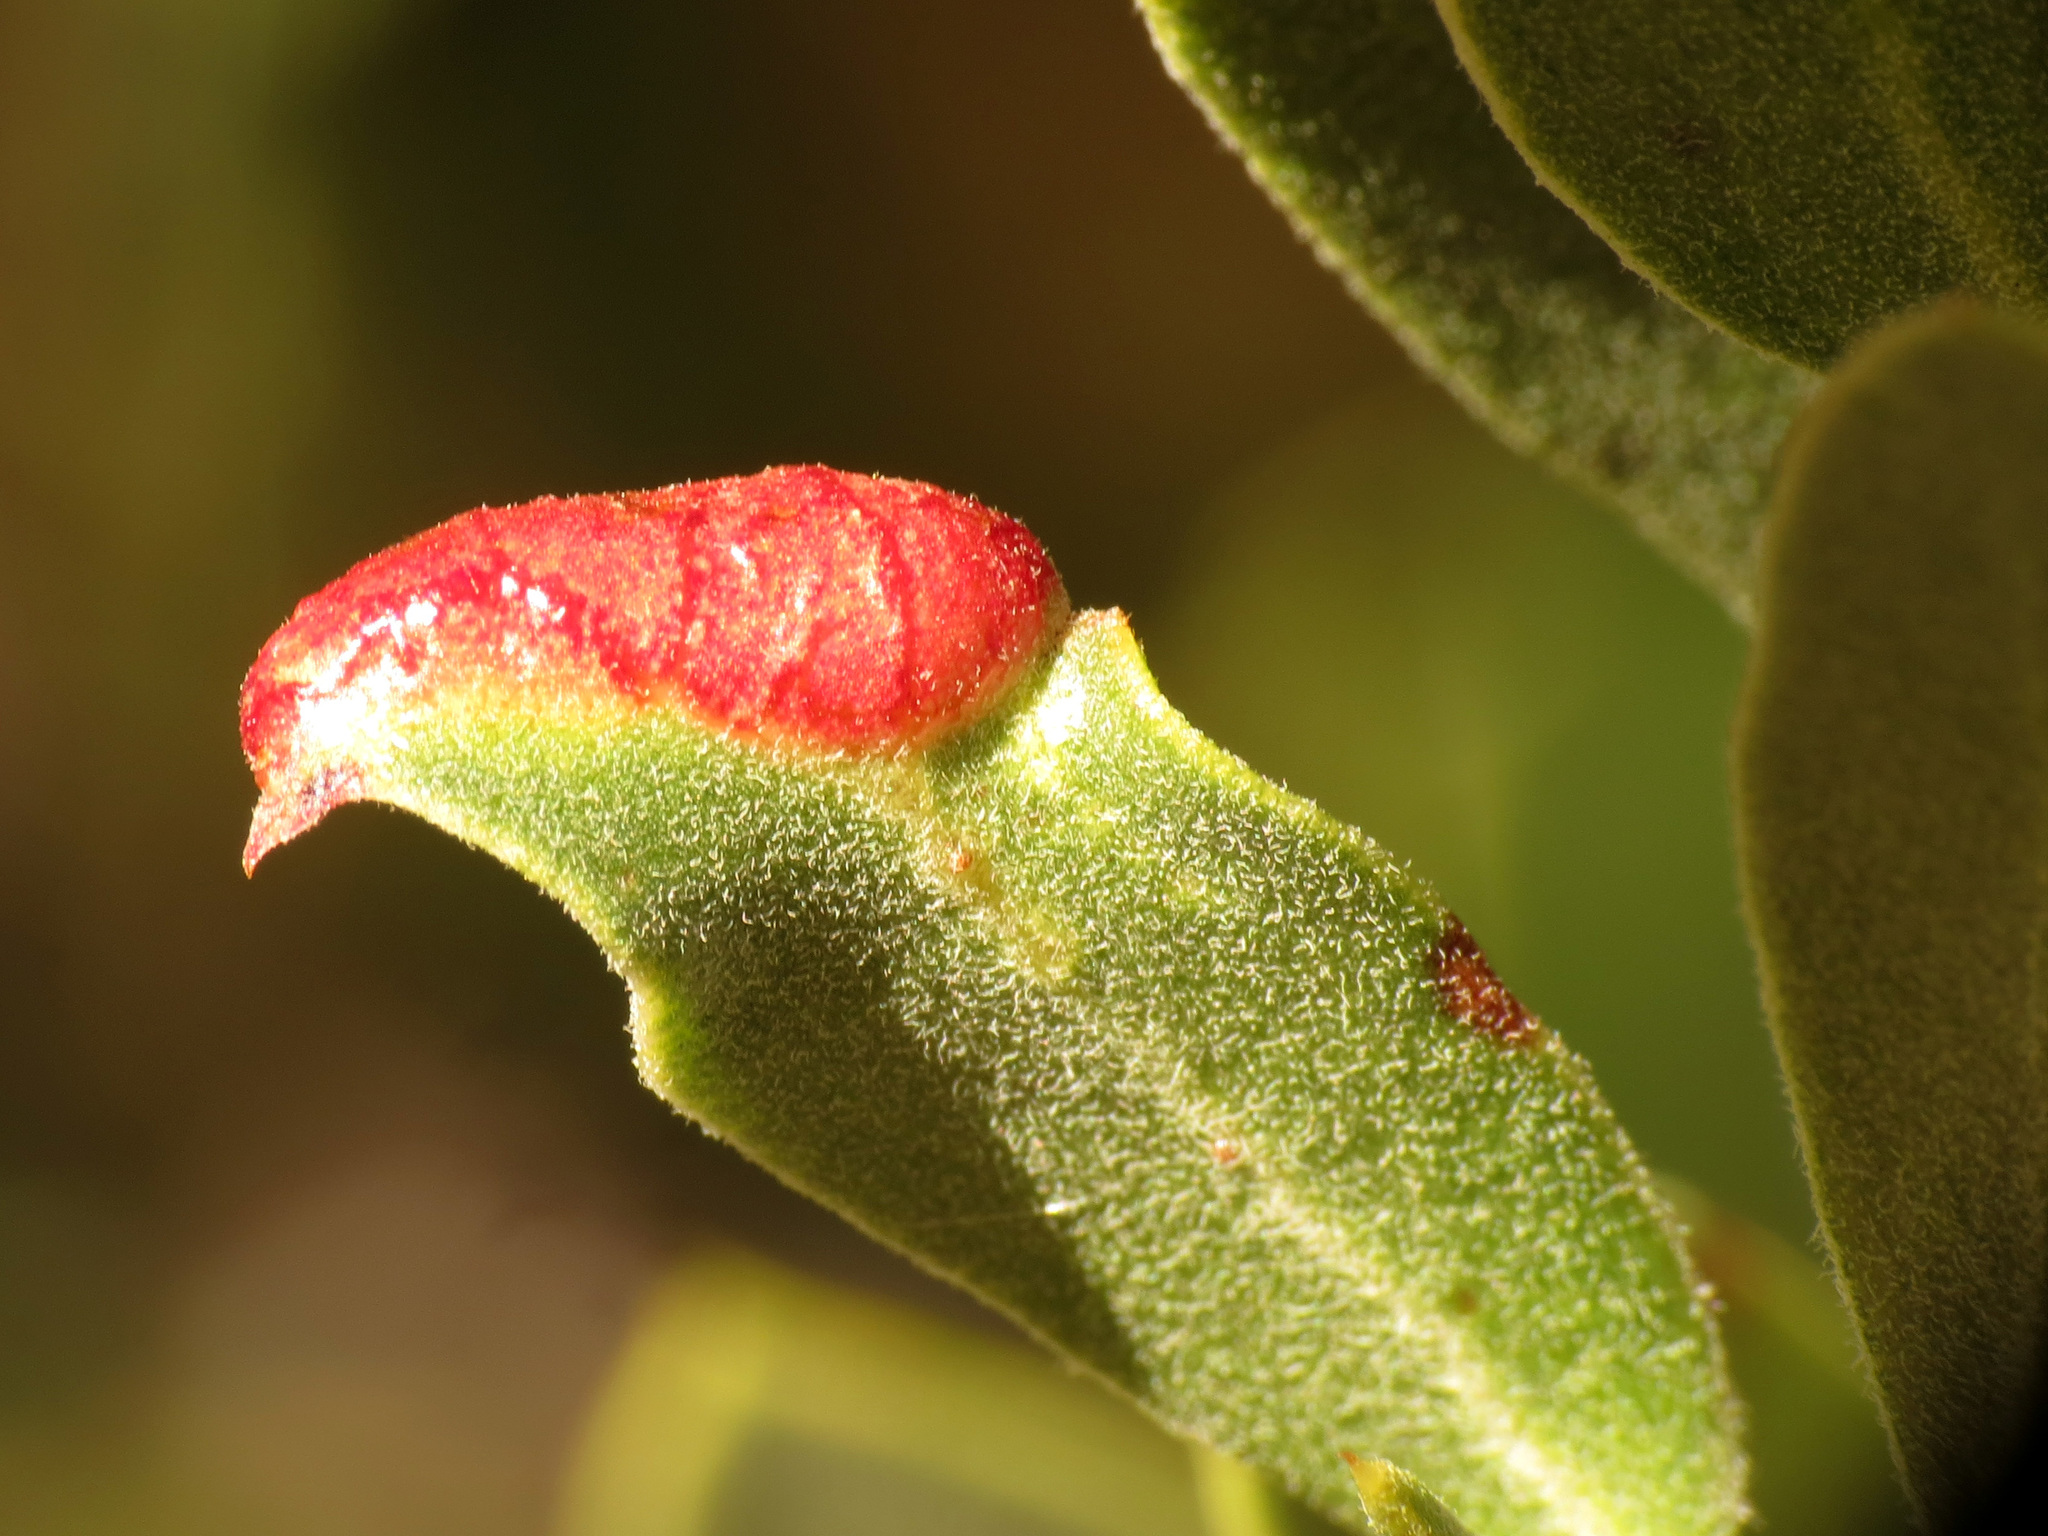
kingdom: Animalia
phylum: Arthropoda
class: Insecta
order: Hemiptera
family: Aphididae
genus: Tamalia
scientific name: Tamalia coweni
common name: Manzanita leafgall aphid
